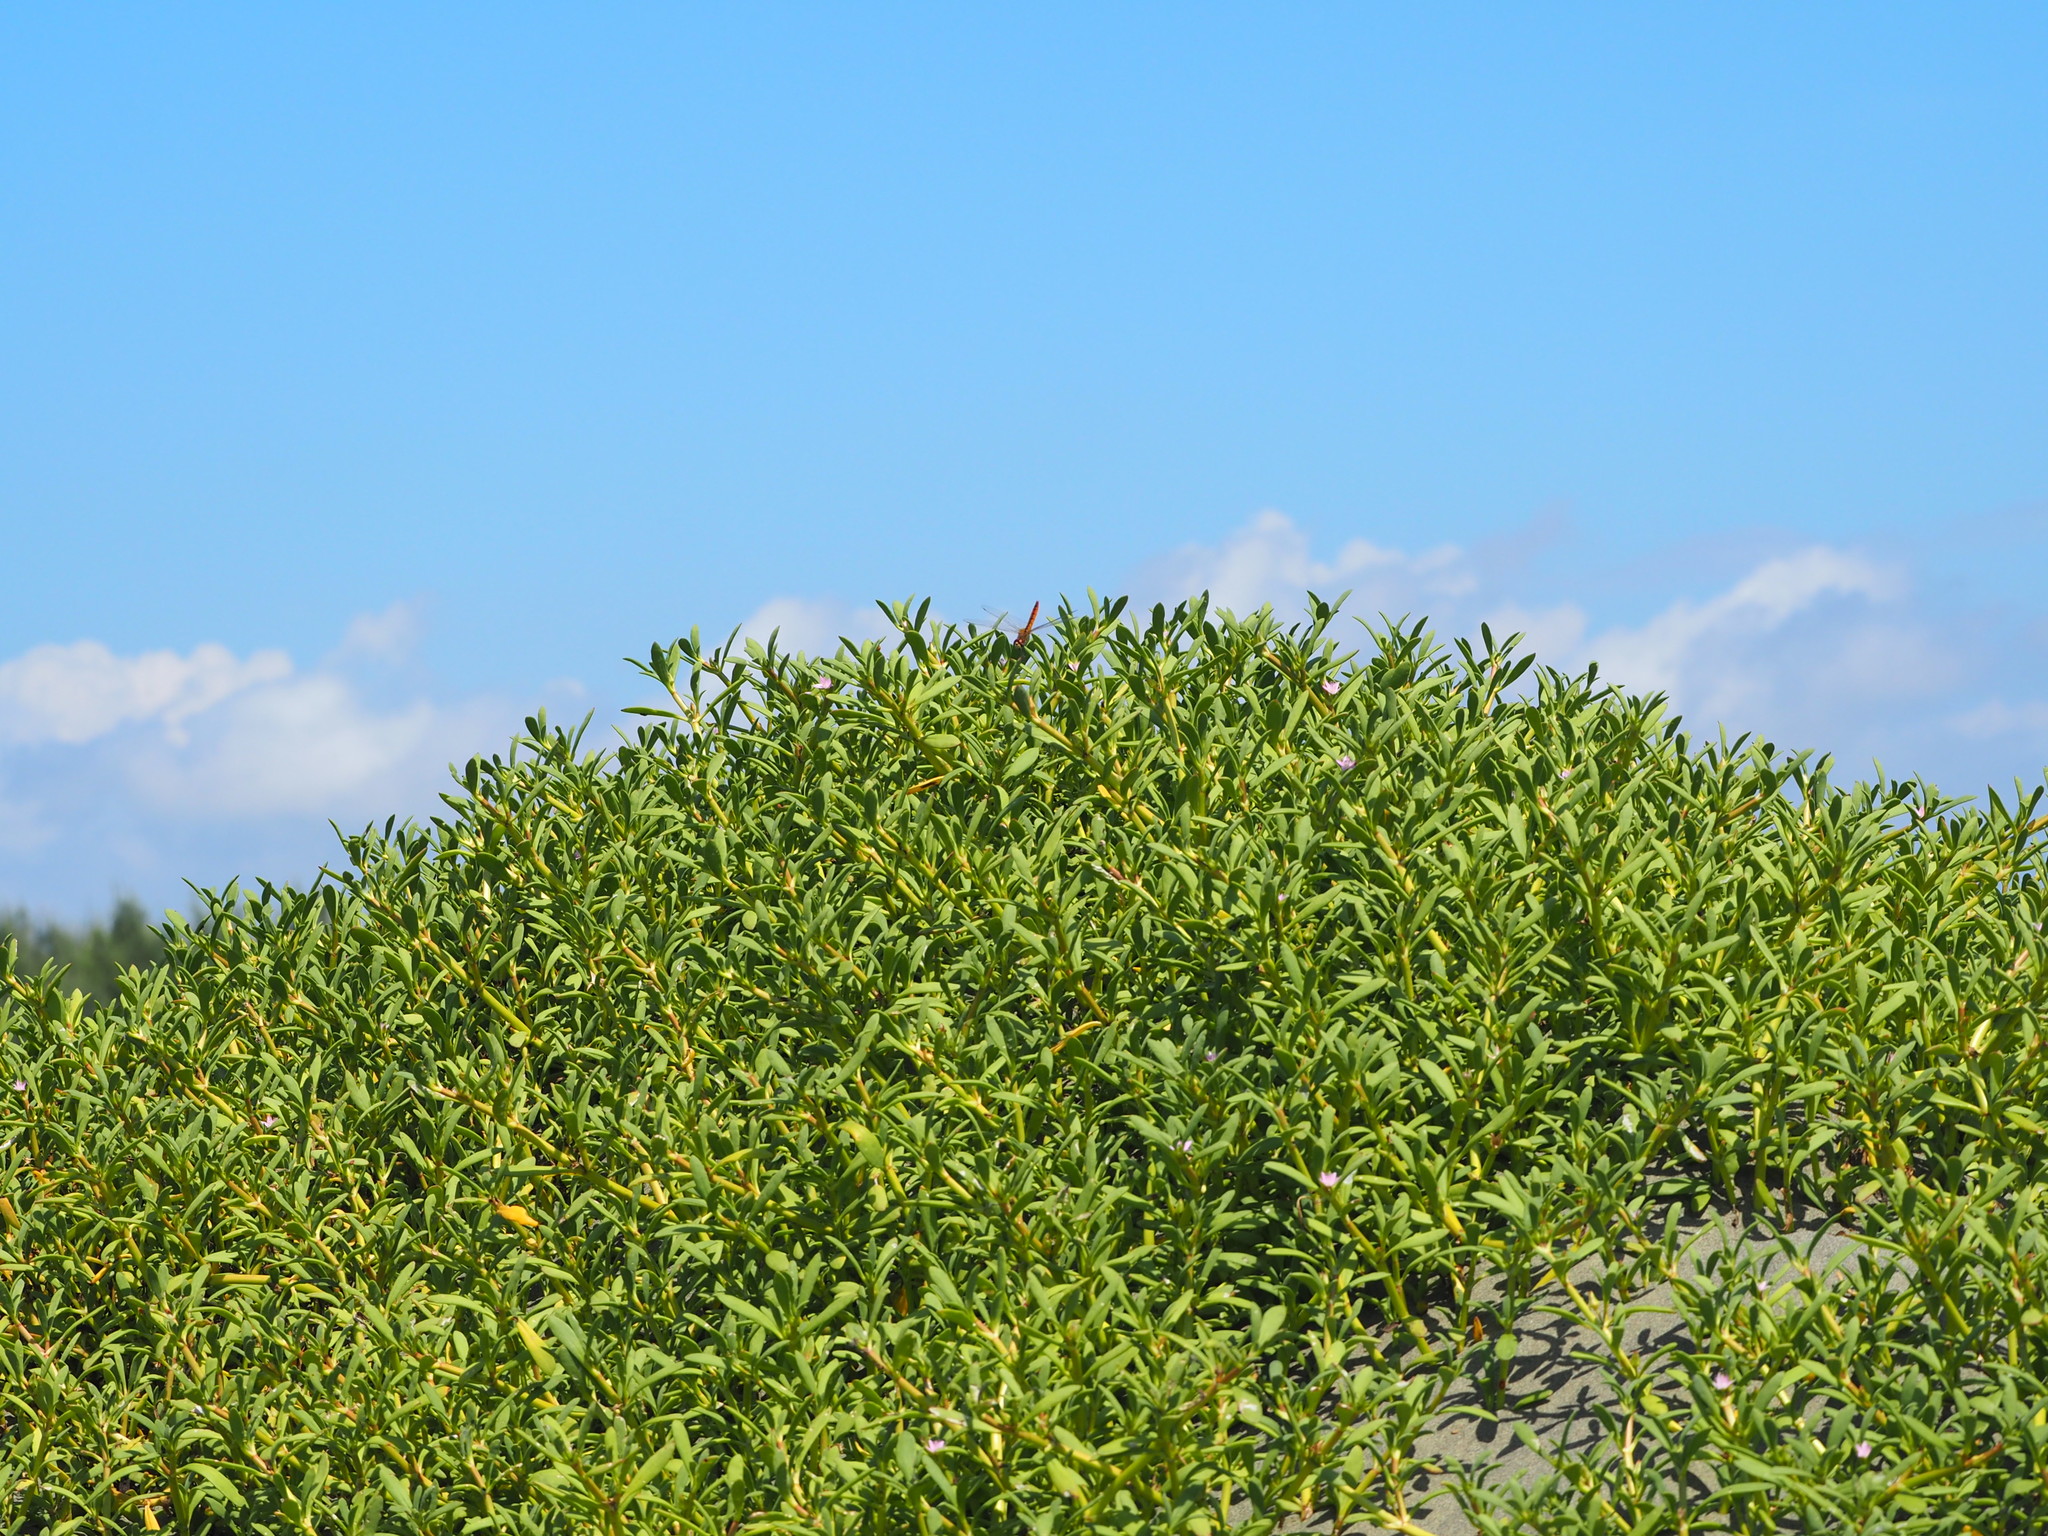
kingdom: Plantae
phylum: Tracheophyta
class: Magnoliopsida
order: Caryophyllales
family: Aizoaceae
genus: Sesuvium
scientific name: Sesuvium portulacastrum
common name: Sea-purslane
